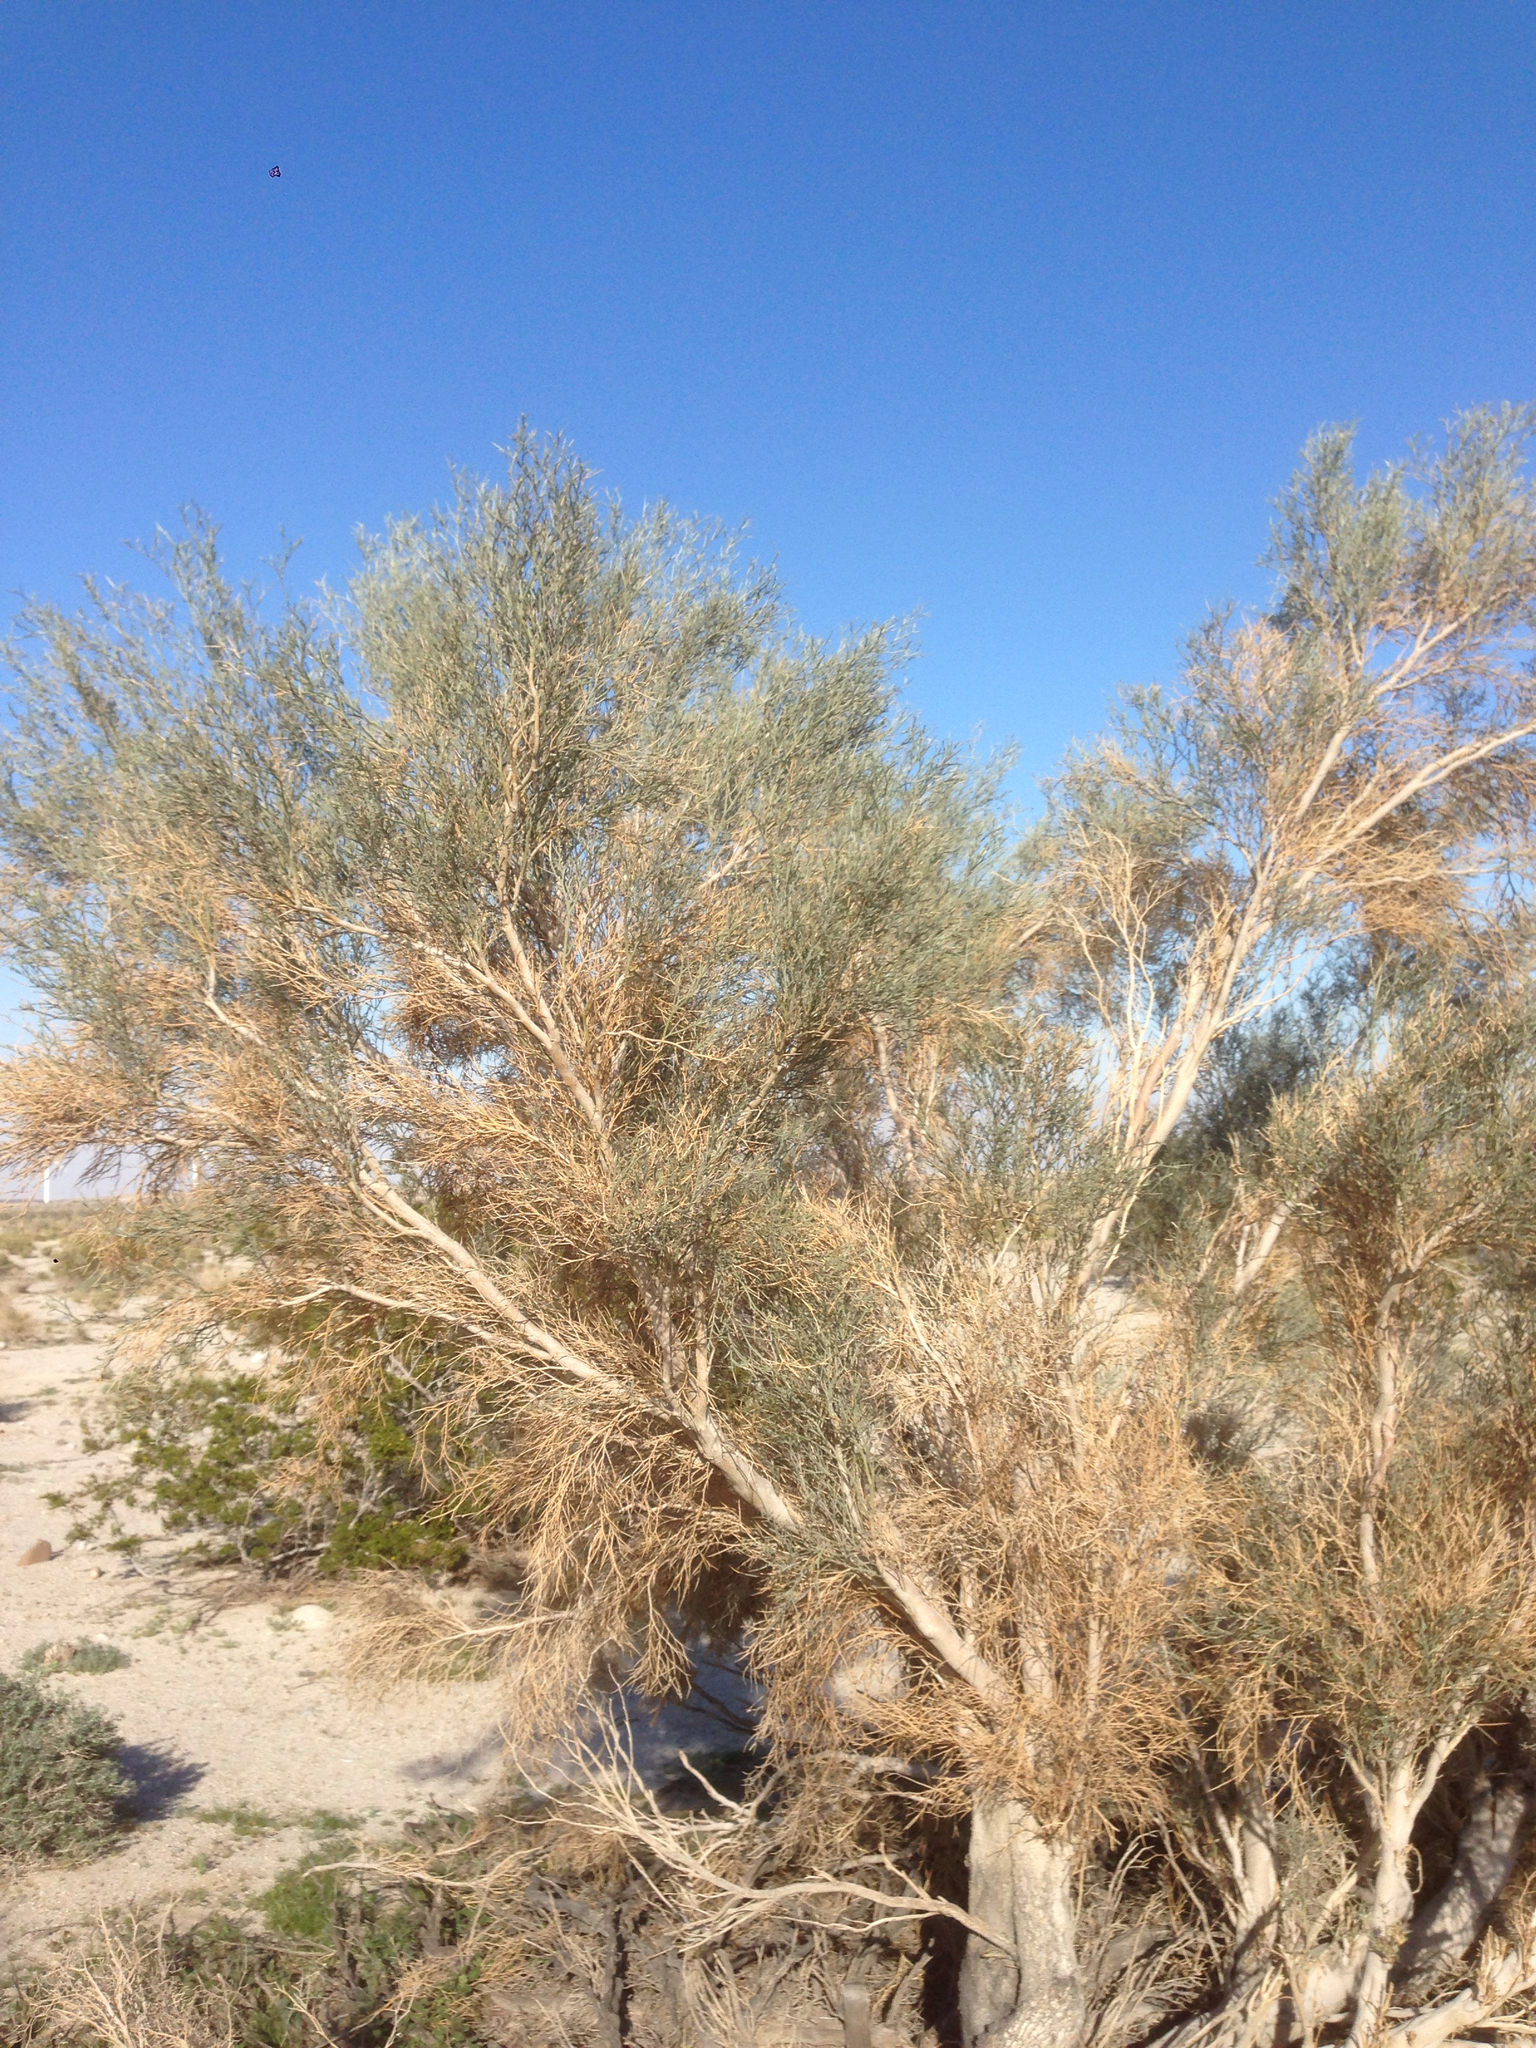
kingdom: Plantae
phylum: Tracheophyta
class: Magnoliopsida
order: Fabales
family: Fabaceae
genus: Psorothamnus
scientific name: Psorothamnus spinosus
